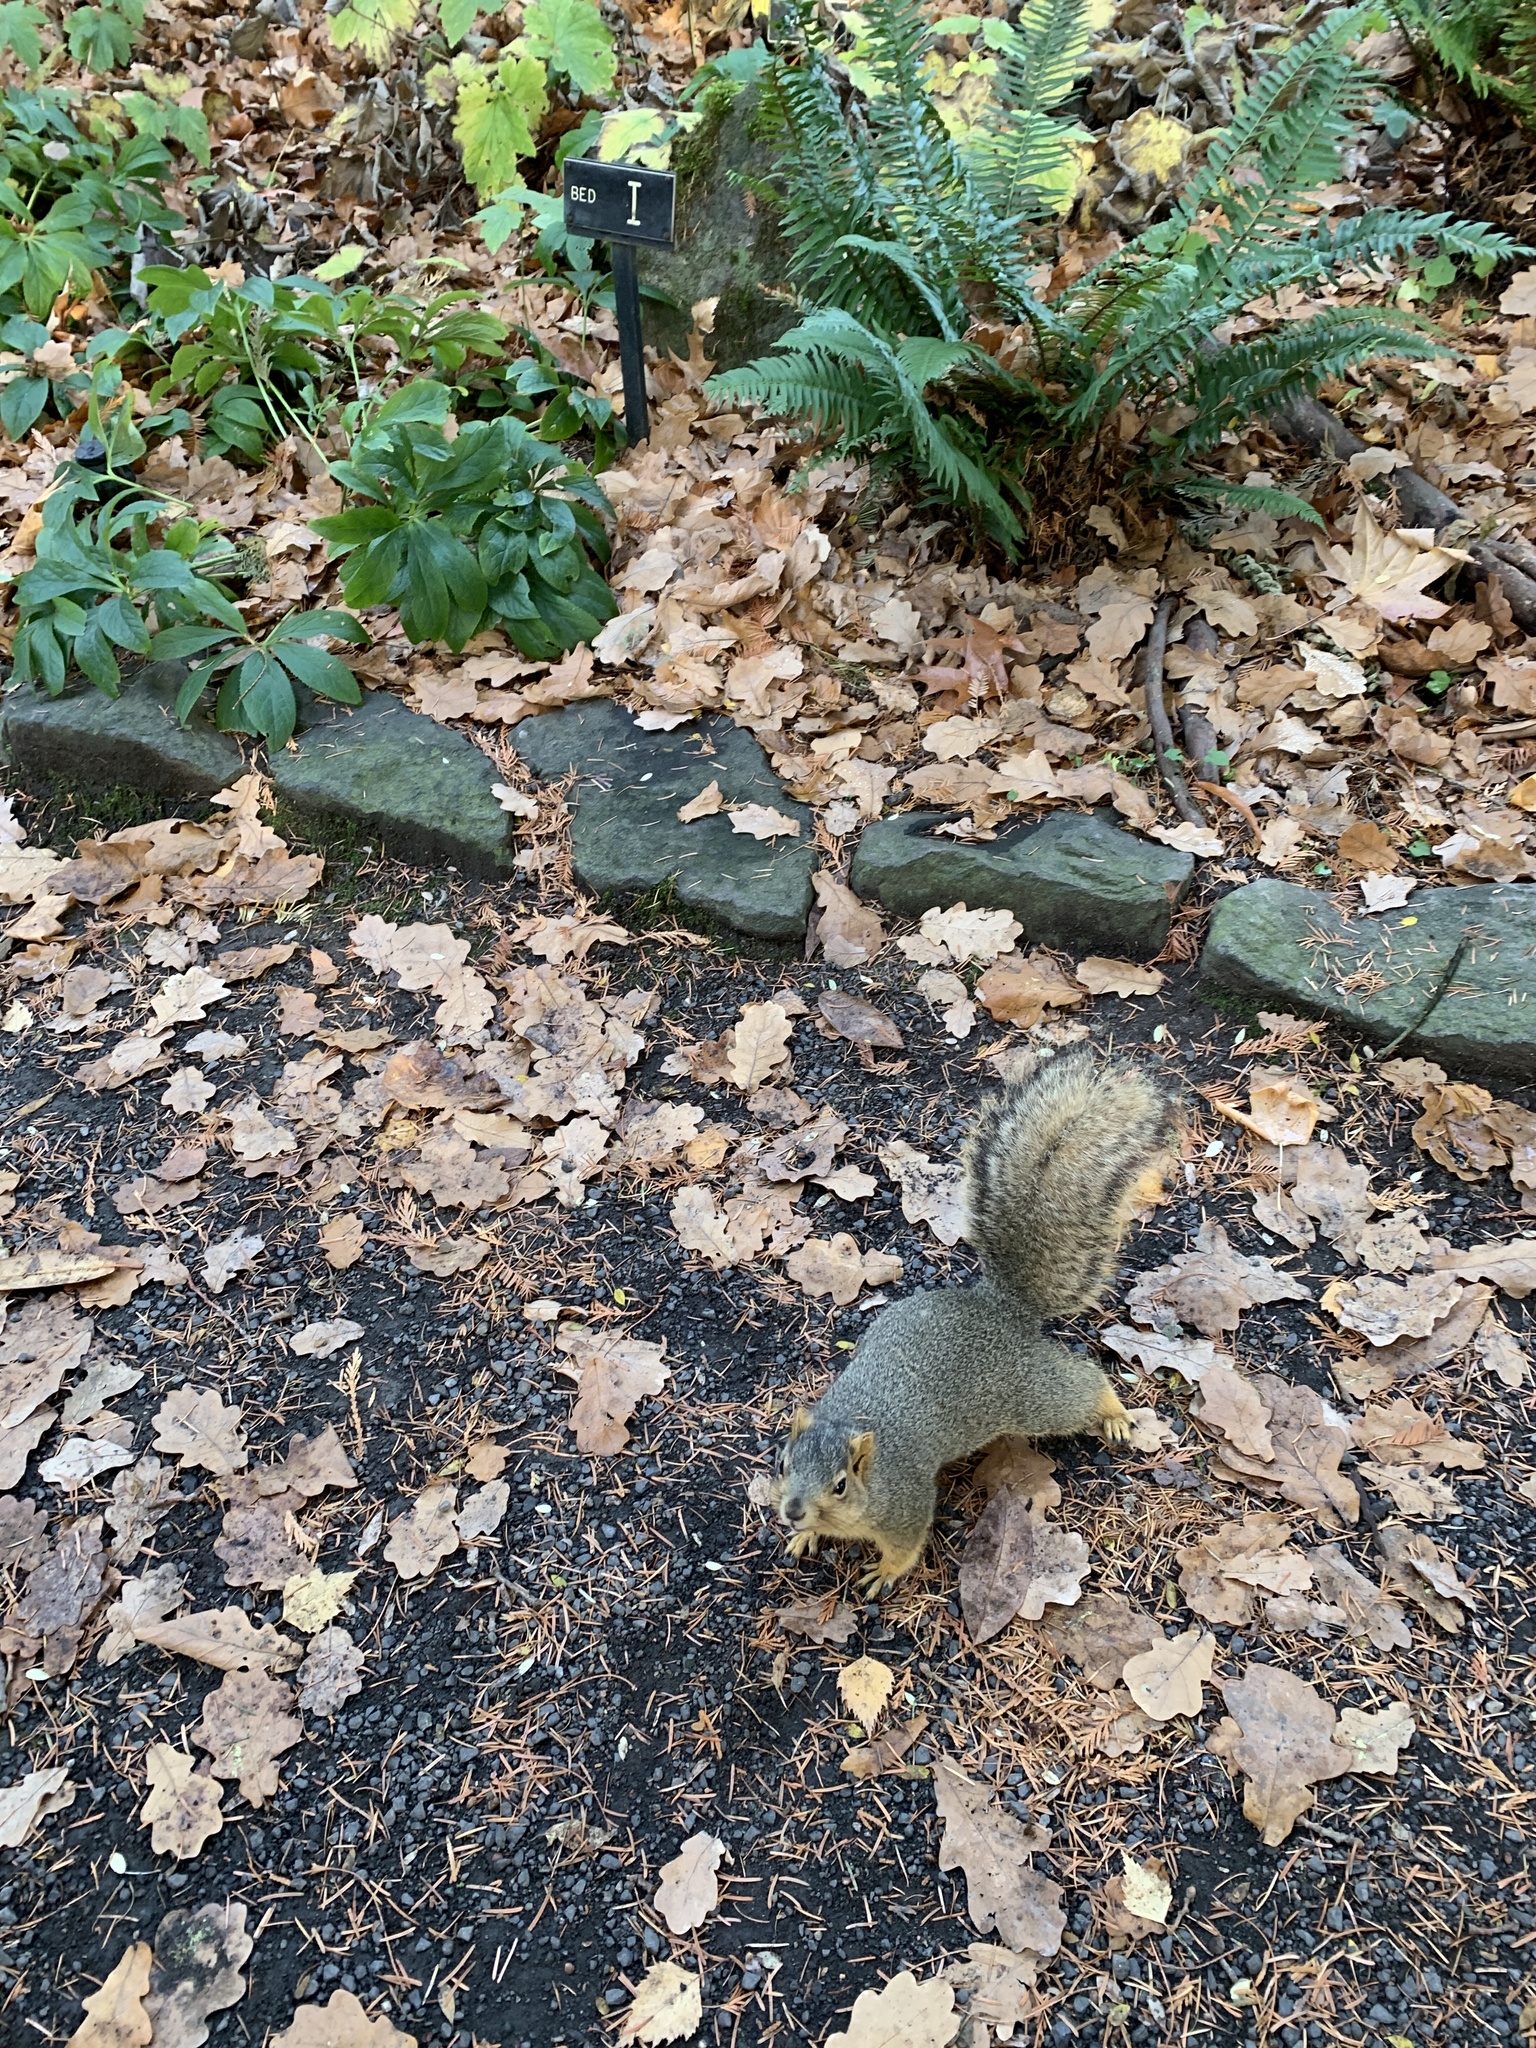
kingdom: Animalia
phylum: Chordata
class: Mammalia
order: Rodentia
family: Sciuridae
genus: Sciurus
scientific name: Sciurus niger
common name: Fox squirrel
